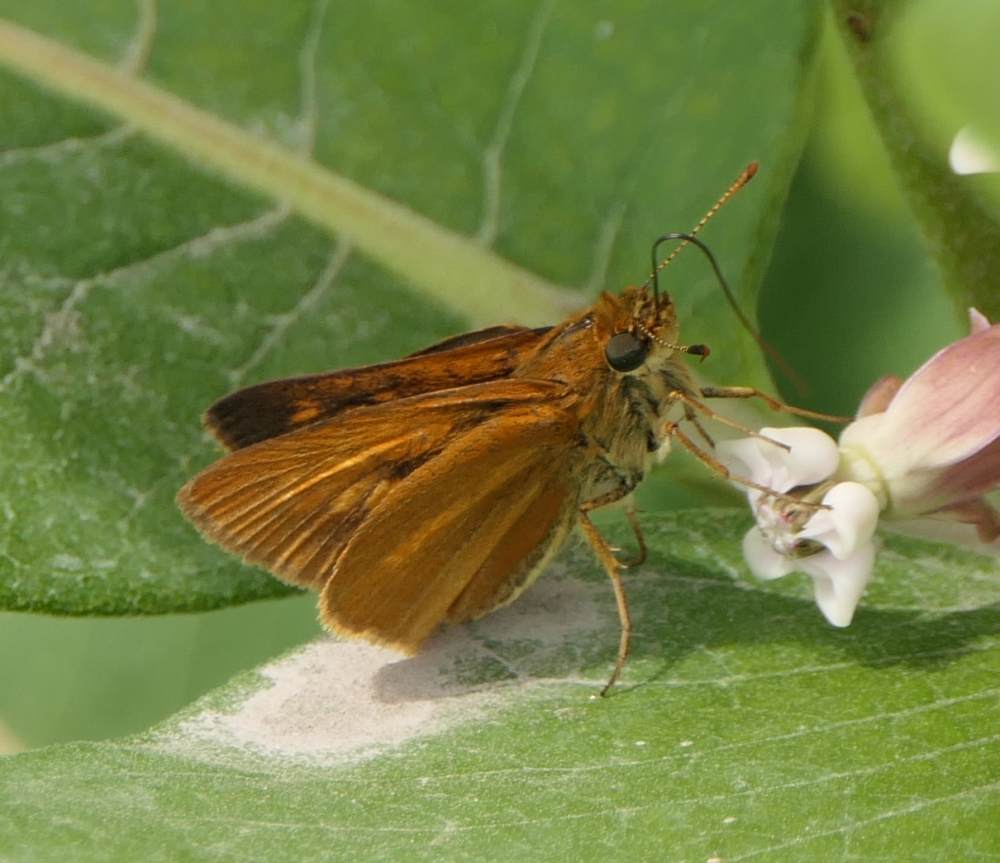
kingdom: Animalia
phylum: Arthropoda
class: Insecta
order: Lepidoptera
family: Hesperiidae
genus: Euphyes
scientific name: Euphyes dion
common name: Dion skipper
